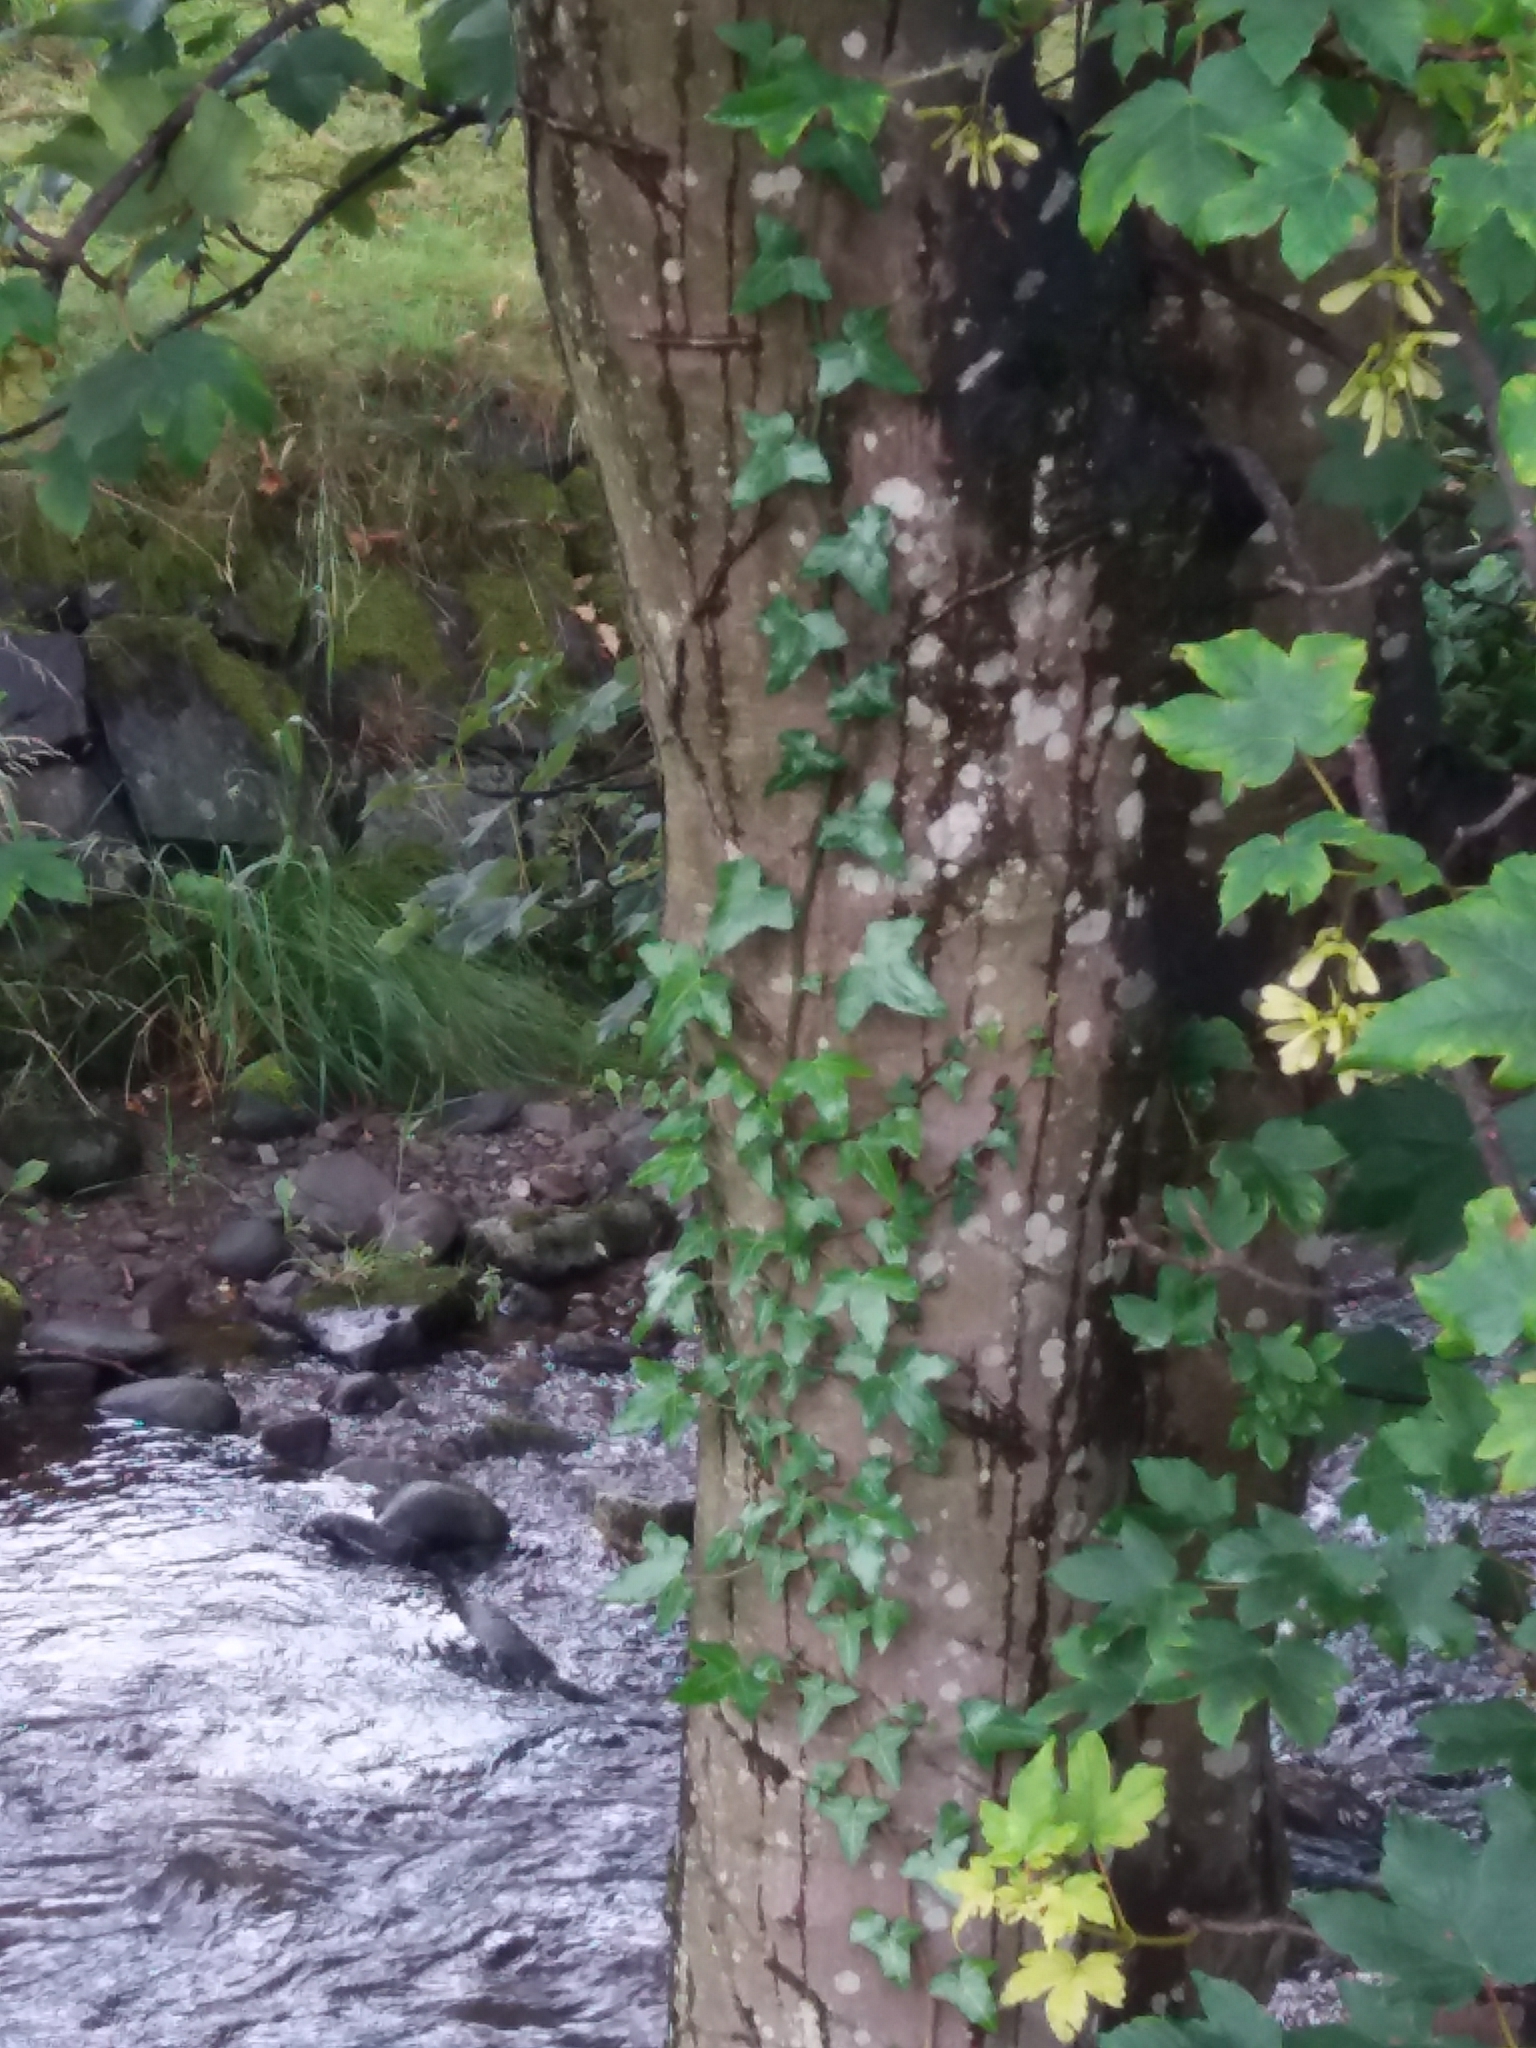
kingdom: Plantae
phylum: Tracheophyta
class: Magnoliopsida
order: Apiales
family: Araliaceae
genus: Hedera
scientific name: Hedera helix
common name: Ivy
